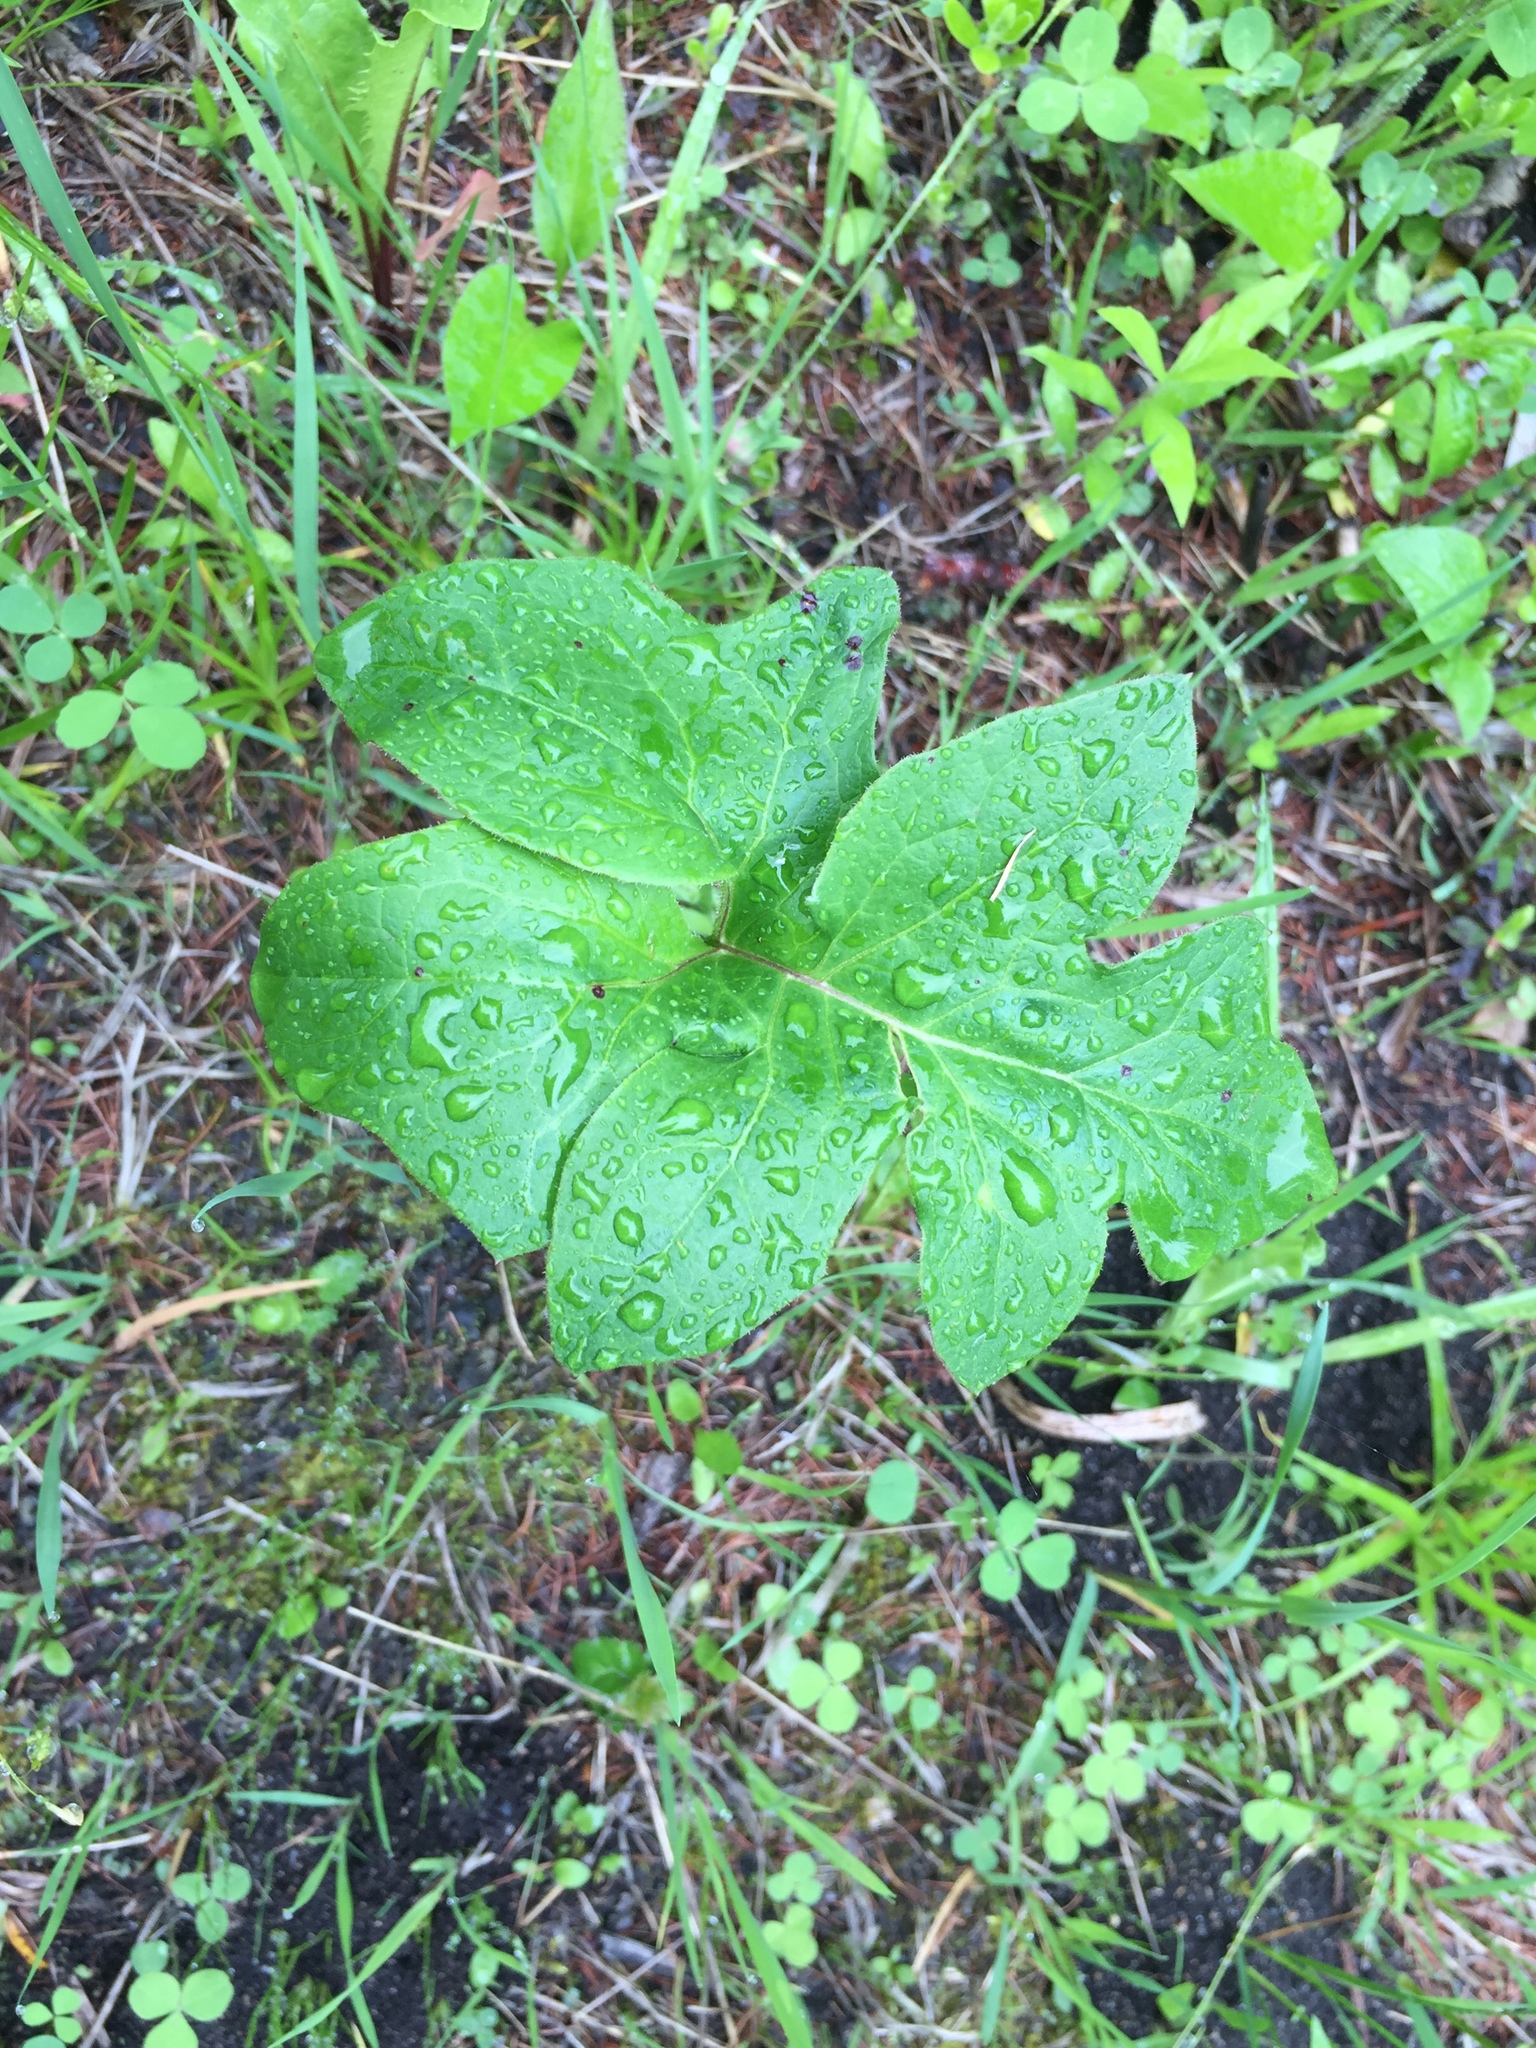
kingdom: Plantae
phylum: Tracheophyta
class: Magnoliopsida
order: Asterales
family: Asteraceae
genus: Nabalus
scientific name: Nabalus albus
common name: White rattlesnakeroot
